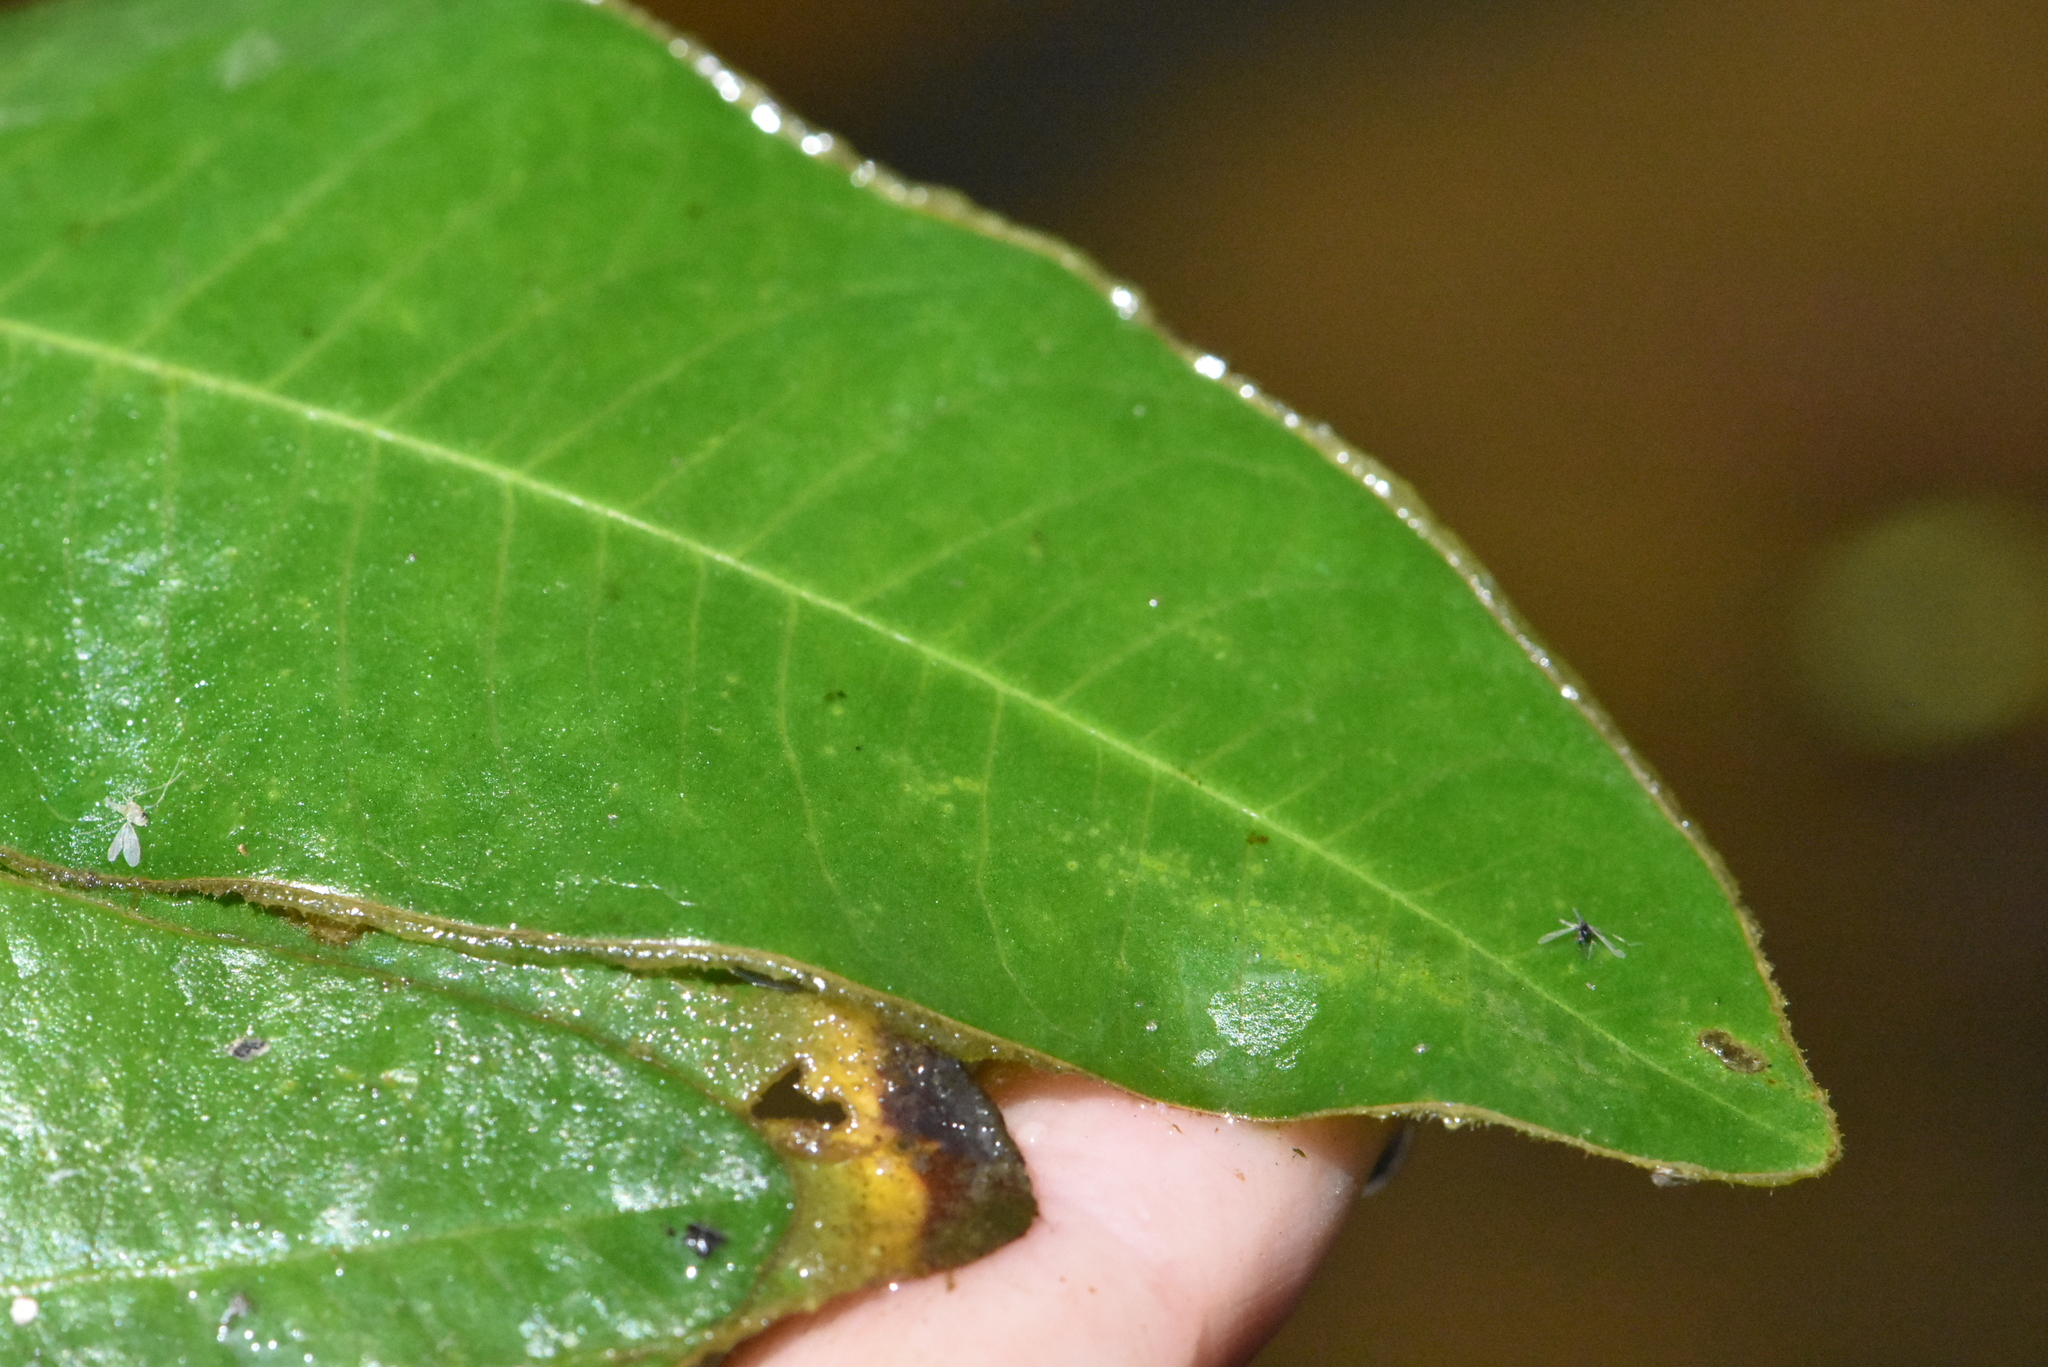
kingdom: Plantae
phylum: Tracheophyta
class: Magnoliopsida
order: Caryophyllales
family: Polygonaceae
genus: Persicaria
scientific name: Persicaria amphibia
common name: Amphibious bistort
